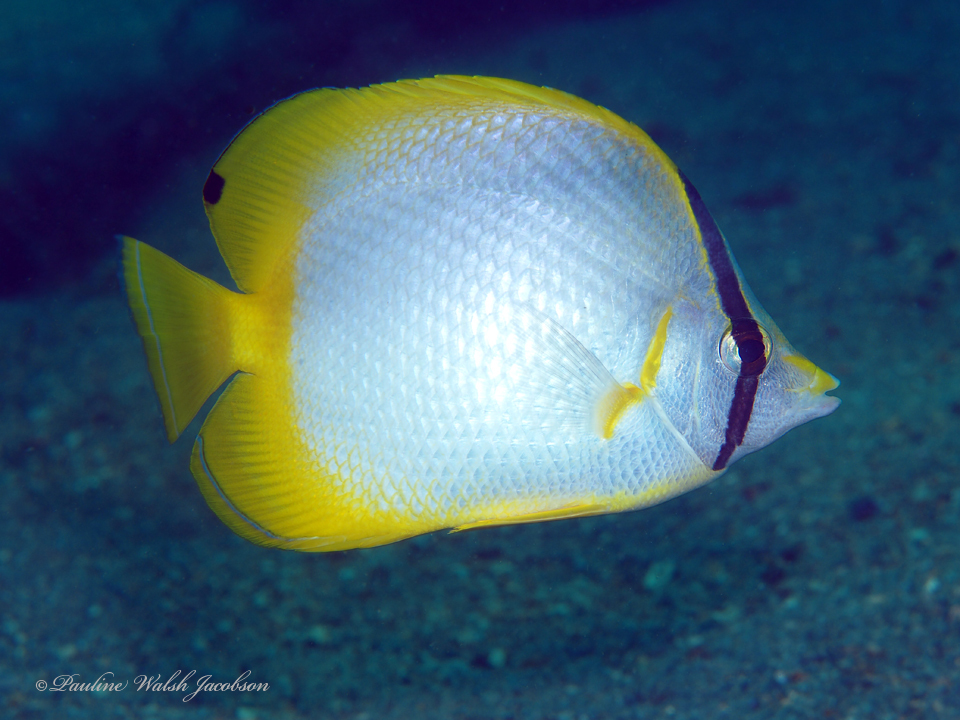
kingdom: Animalia
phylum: Chordata
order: Perciformes
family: Chaetodontidae
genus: Chaetodon
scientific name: Chaetodon ocellatus
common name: Spotfin butterflyfish
